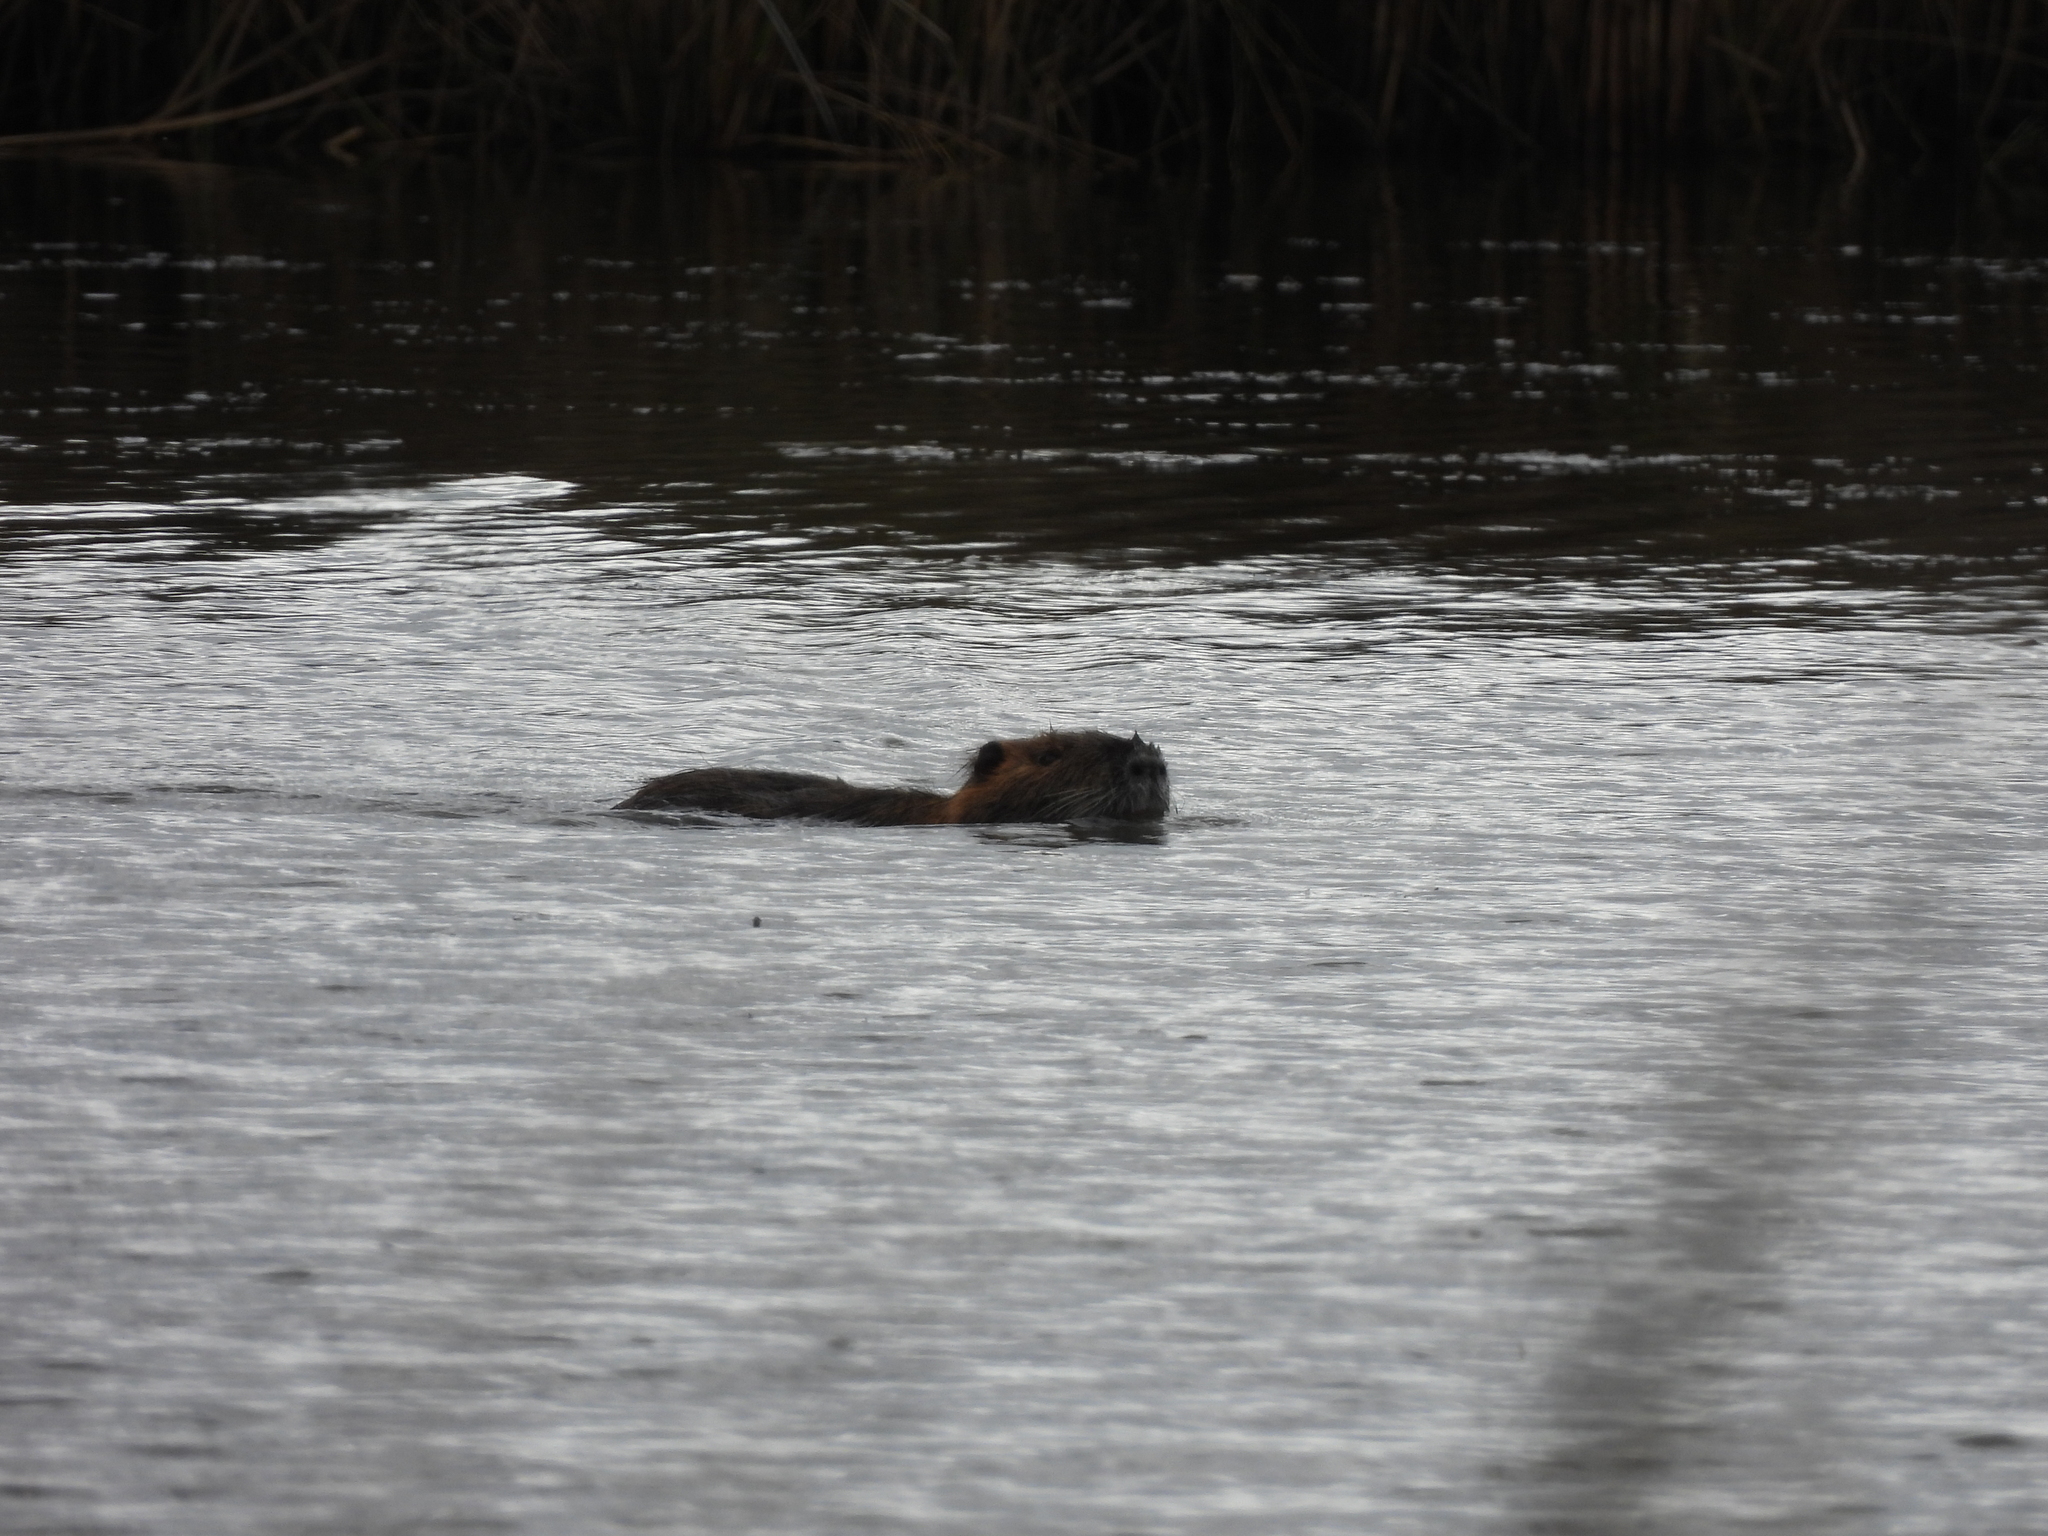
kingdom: Animalia
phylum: Chordata
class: Mammalia
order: Rodentia
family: Myocastoridae
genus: Myocastor
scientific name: Myocastor coypus
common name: Coypu
